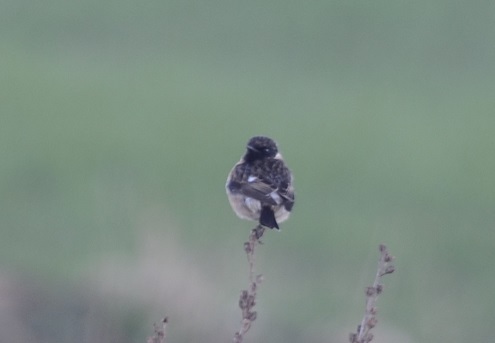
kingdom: Animalia
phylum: Chordata
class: Aves
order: Passeriformes
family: Muscicapidae
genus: Saxicola
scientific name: Saxicola rubicola
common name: European stonechat
